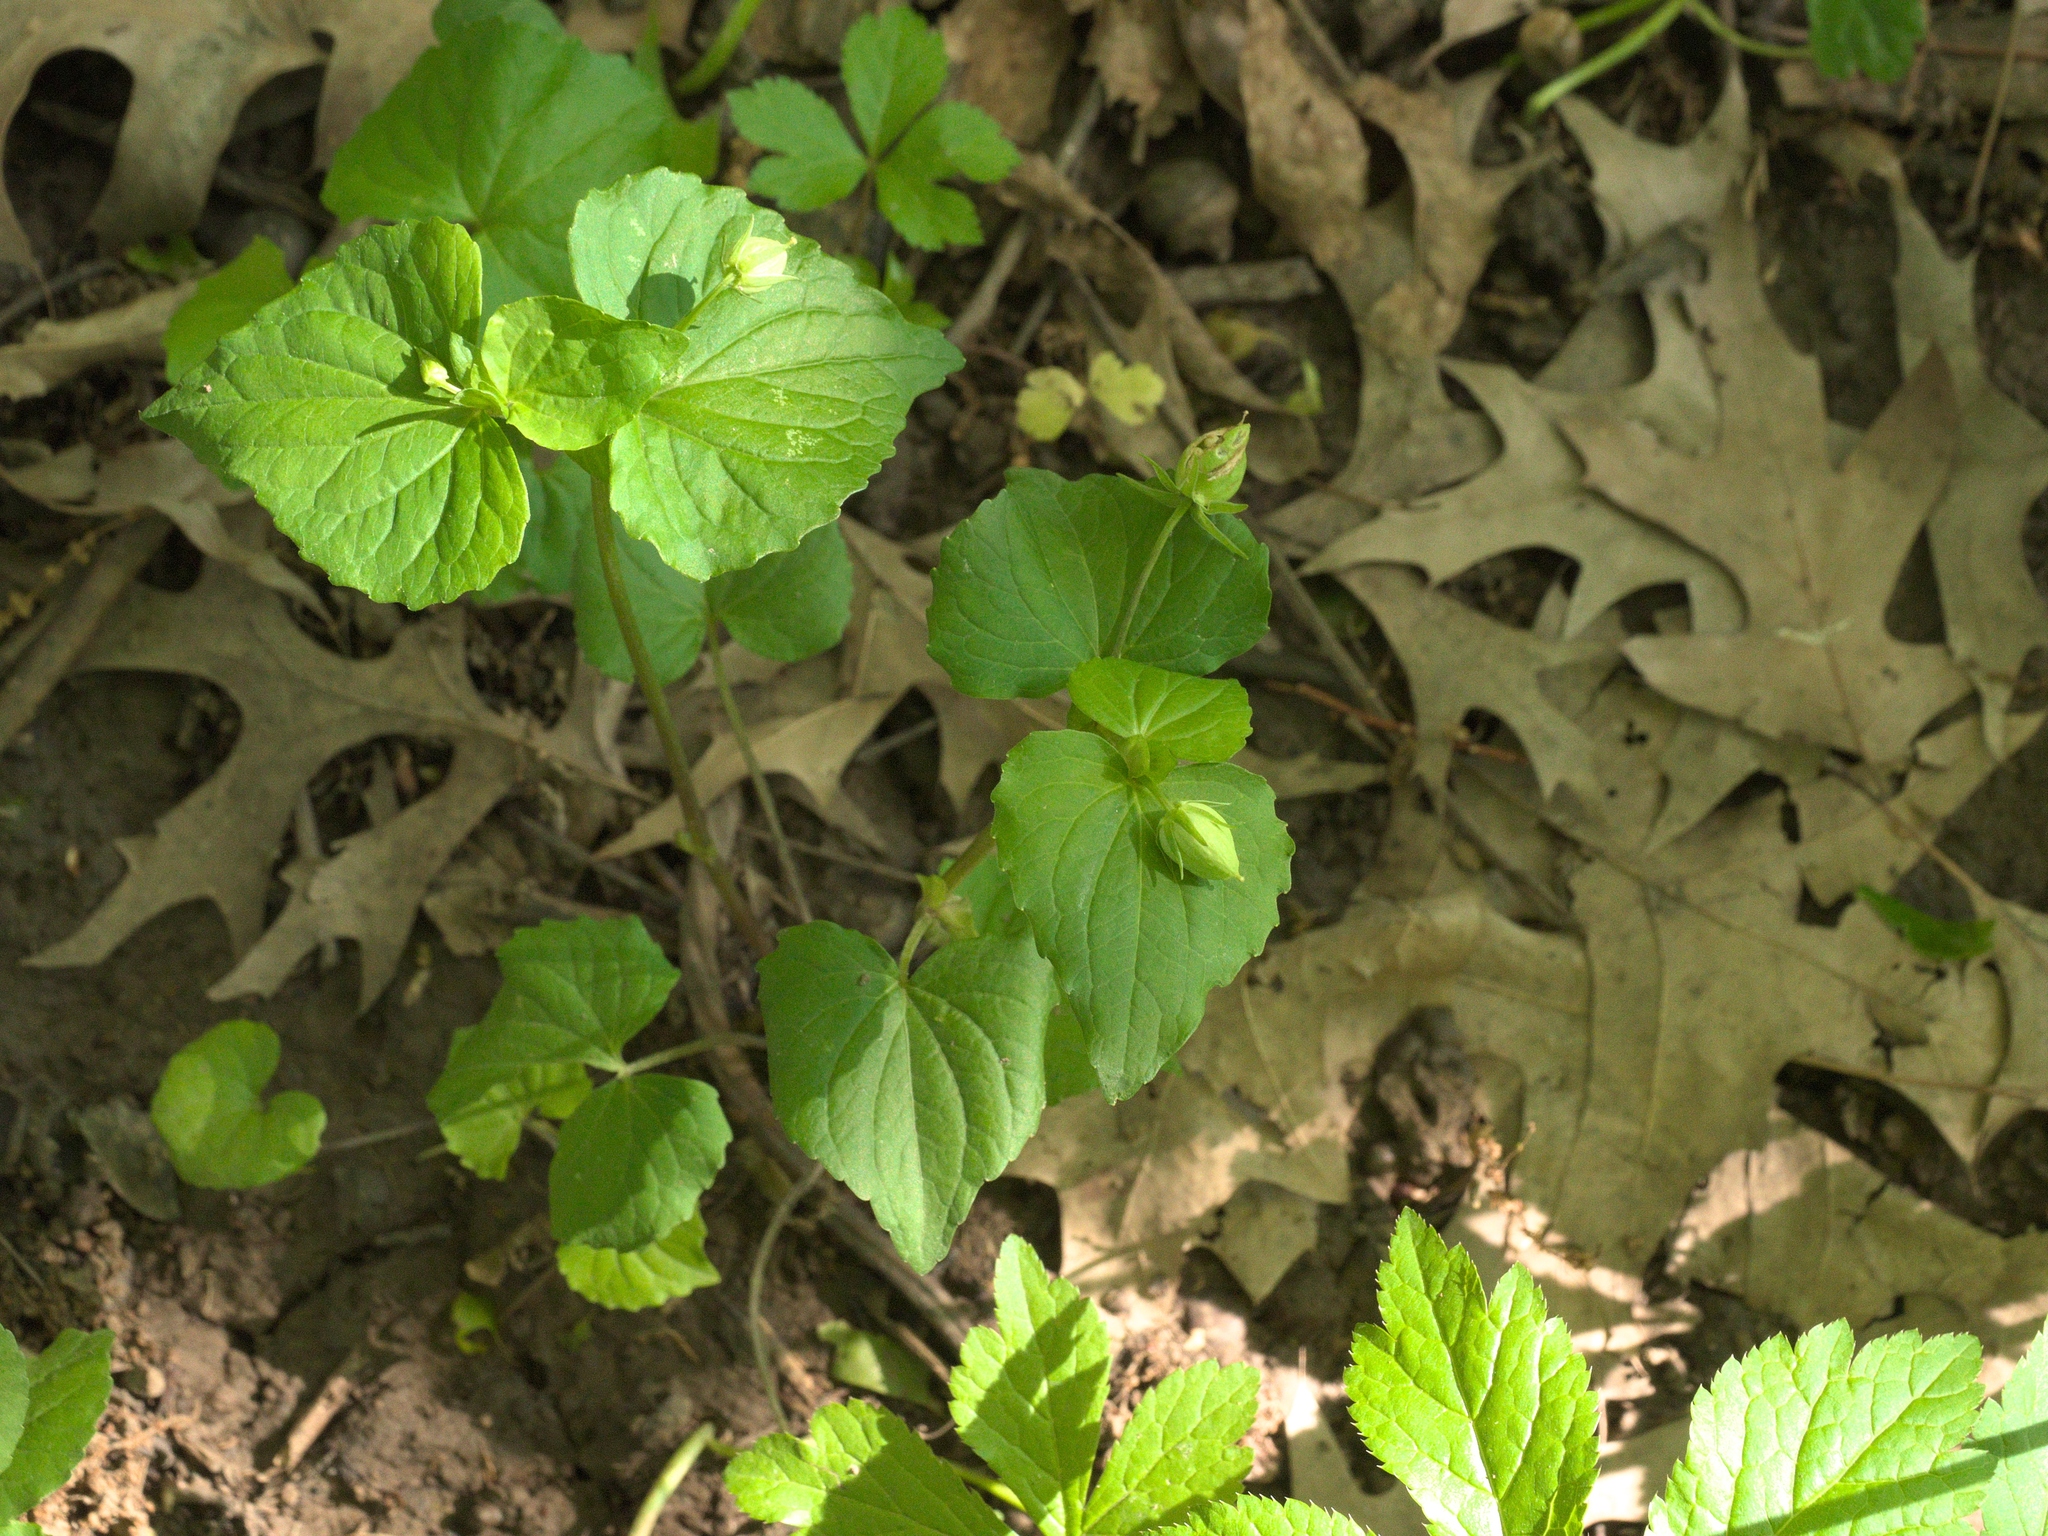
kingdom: Plantae
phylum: Tracheophyta
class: Magnoliopsida
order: Malpighiales
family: Violaceae
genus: Viola
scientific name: Viola sororia
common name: Dooryard violet
